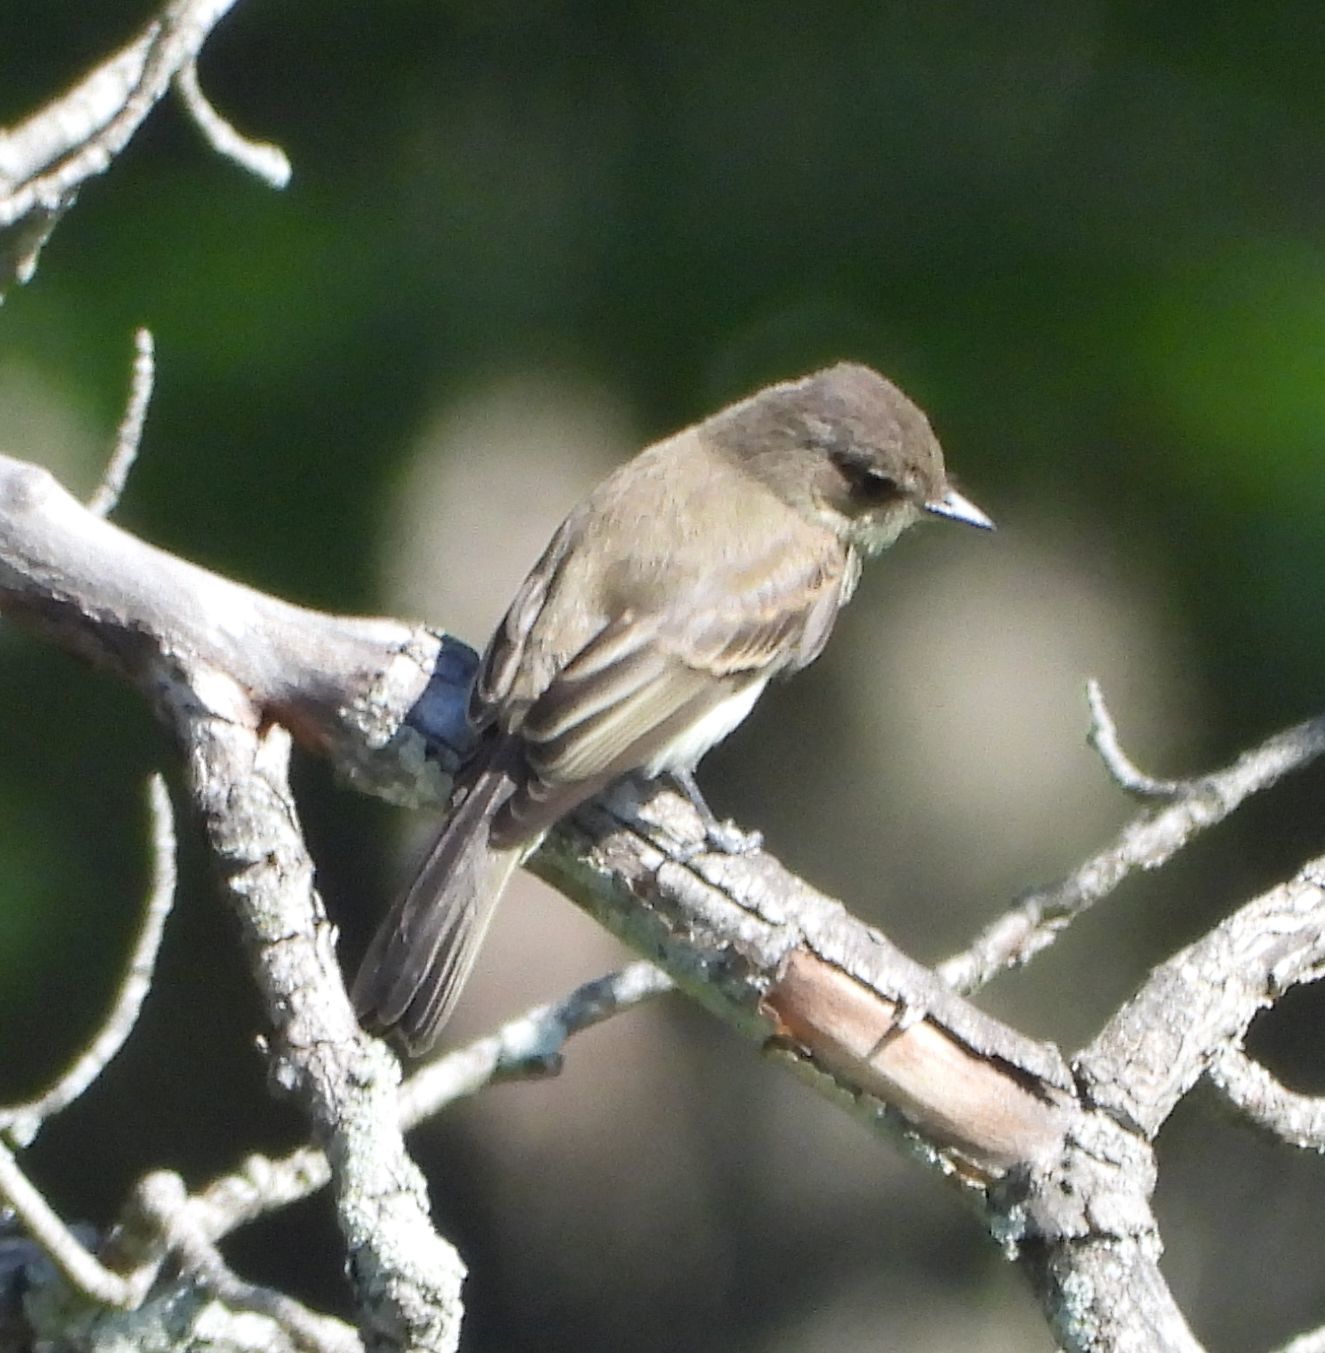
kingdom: Animalia
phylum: Chordata
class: Aves
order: Passeriformes
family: Tyrannidae
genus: Sayornis
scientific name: Sayornis phoebe
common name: Eastern phoebe
